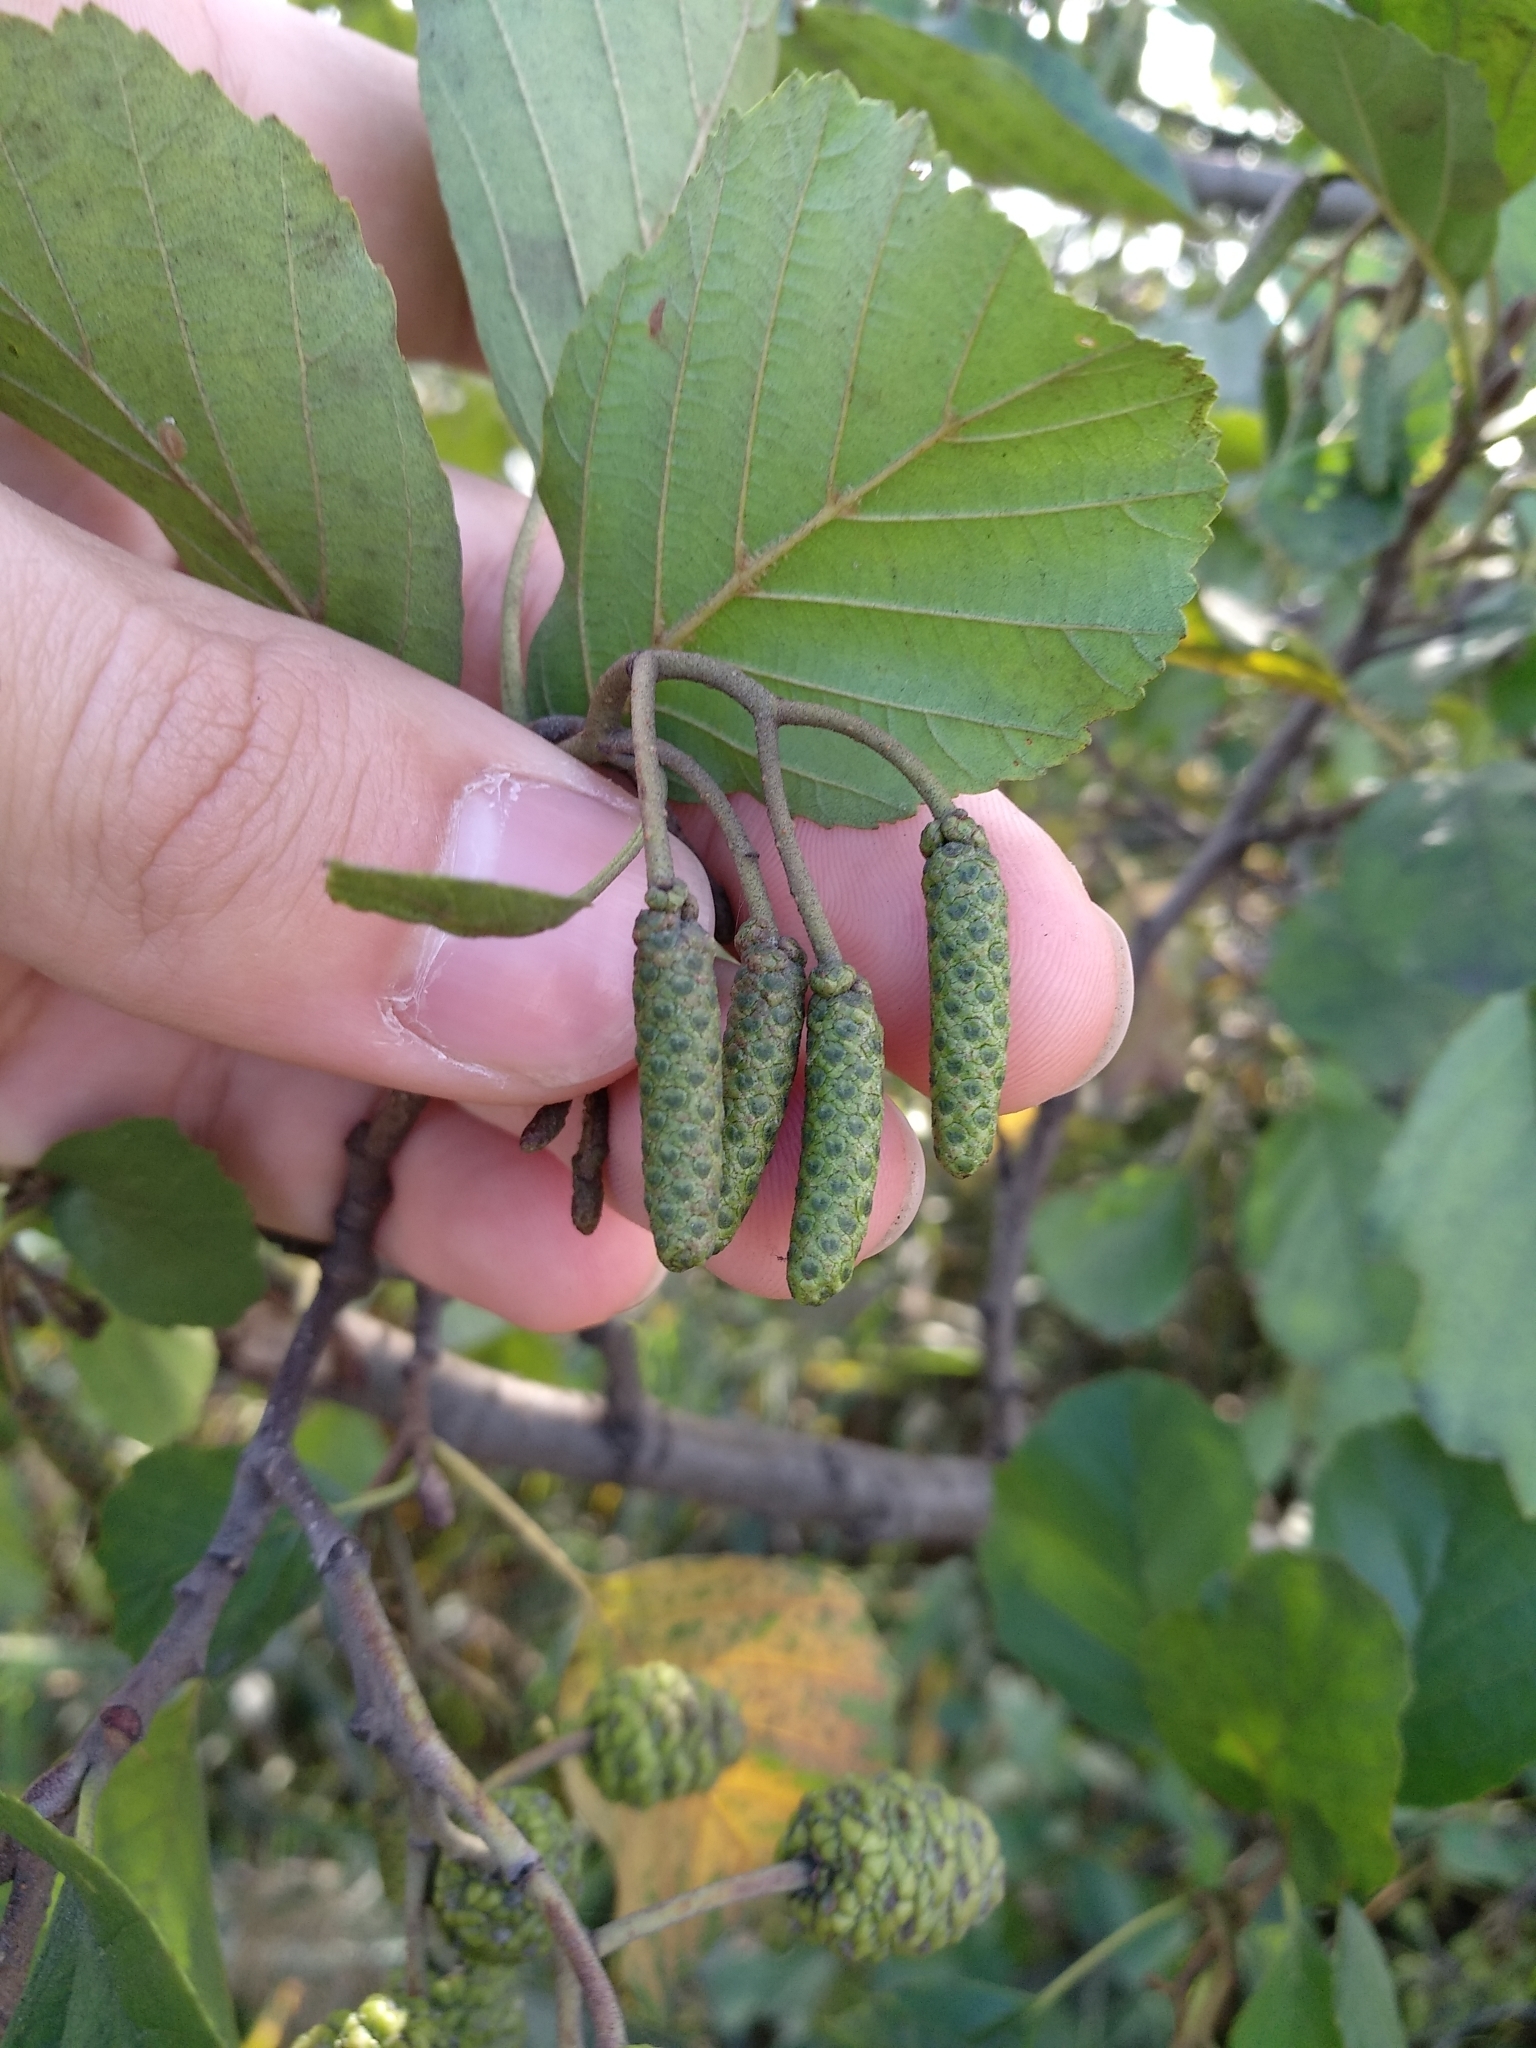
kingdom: Plantae
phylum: Tracheophyta
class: Magnoliopsida
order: Fagales
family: Betulaceae
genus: Alnus
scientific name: Alnus glutinosa
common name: Black alder
